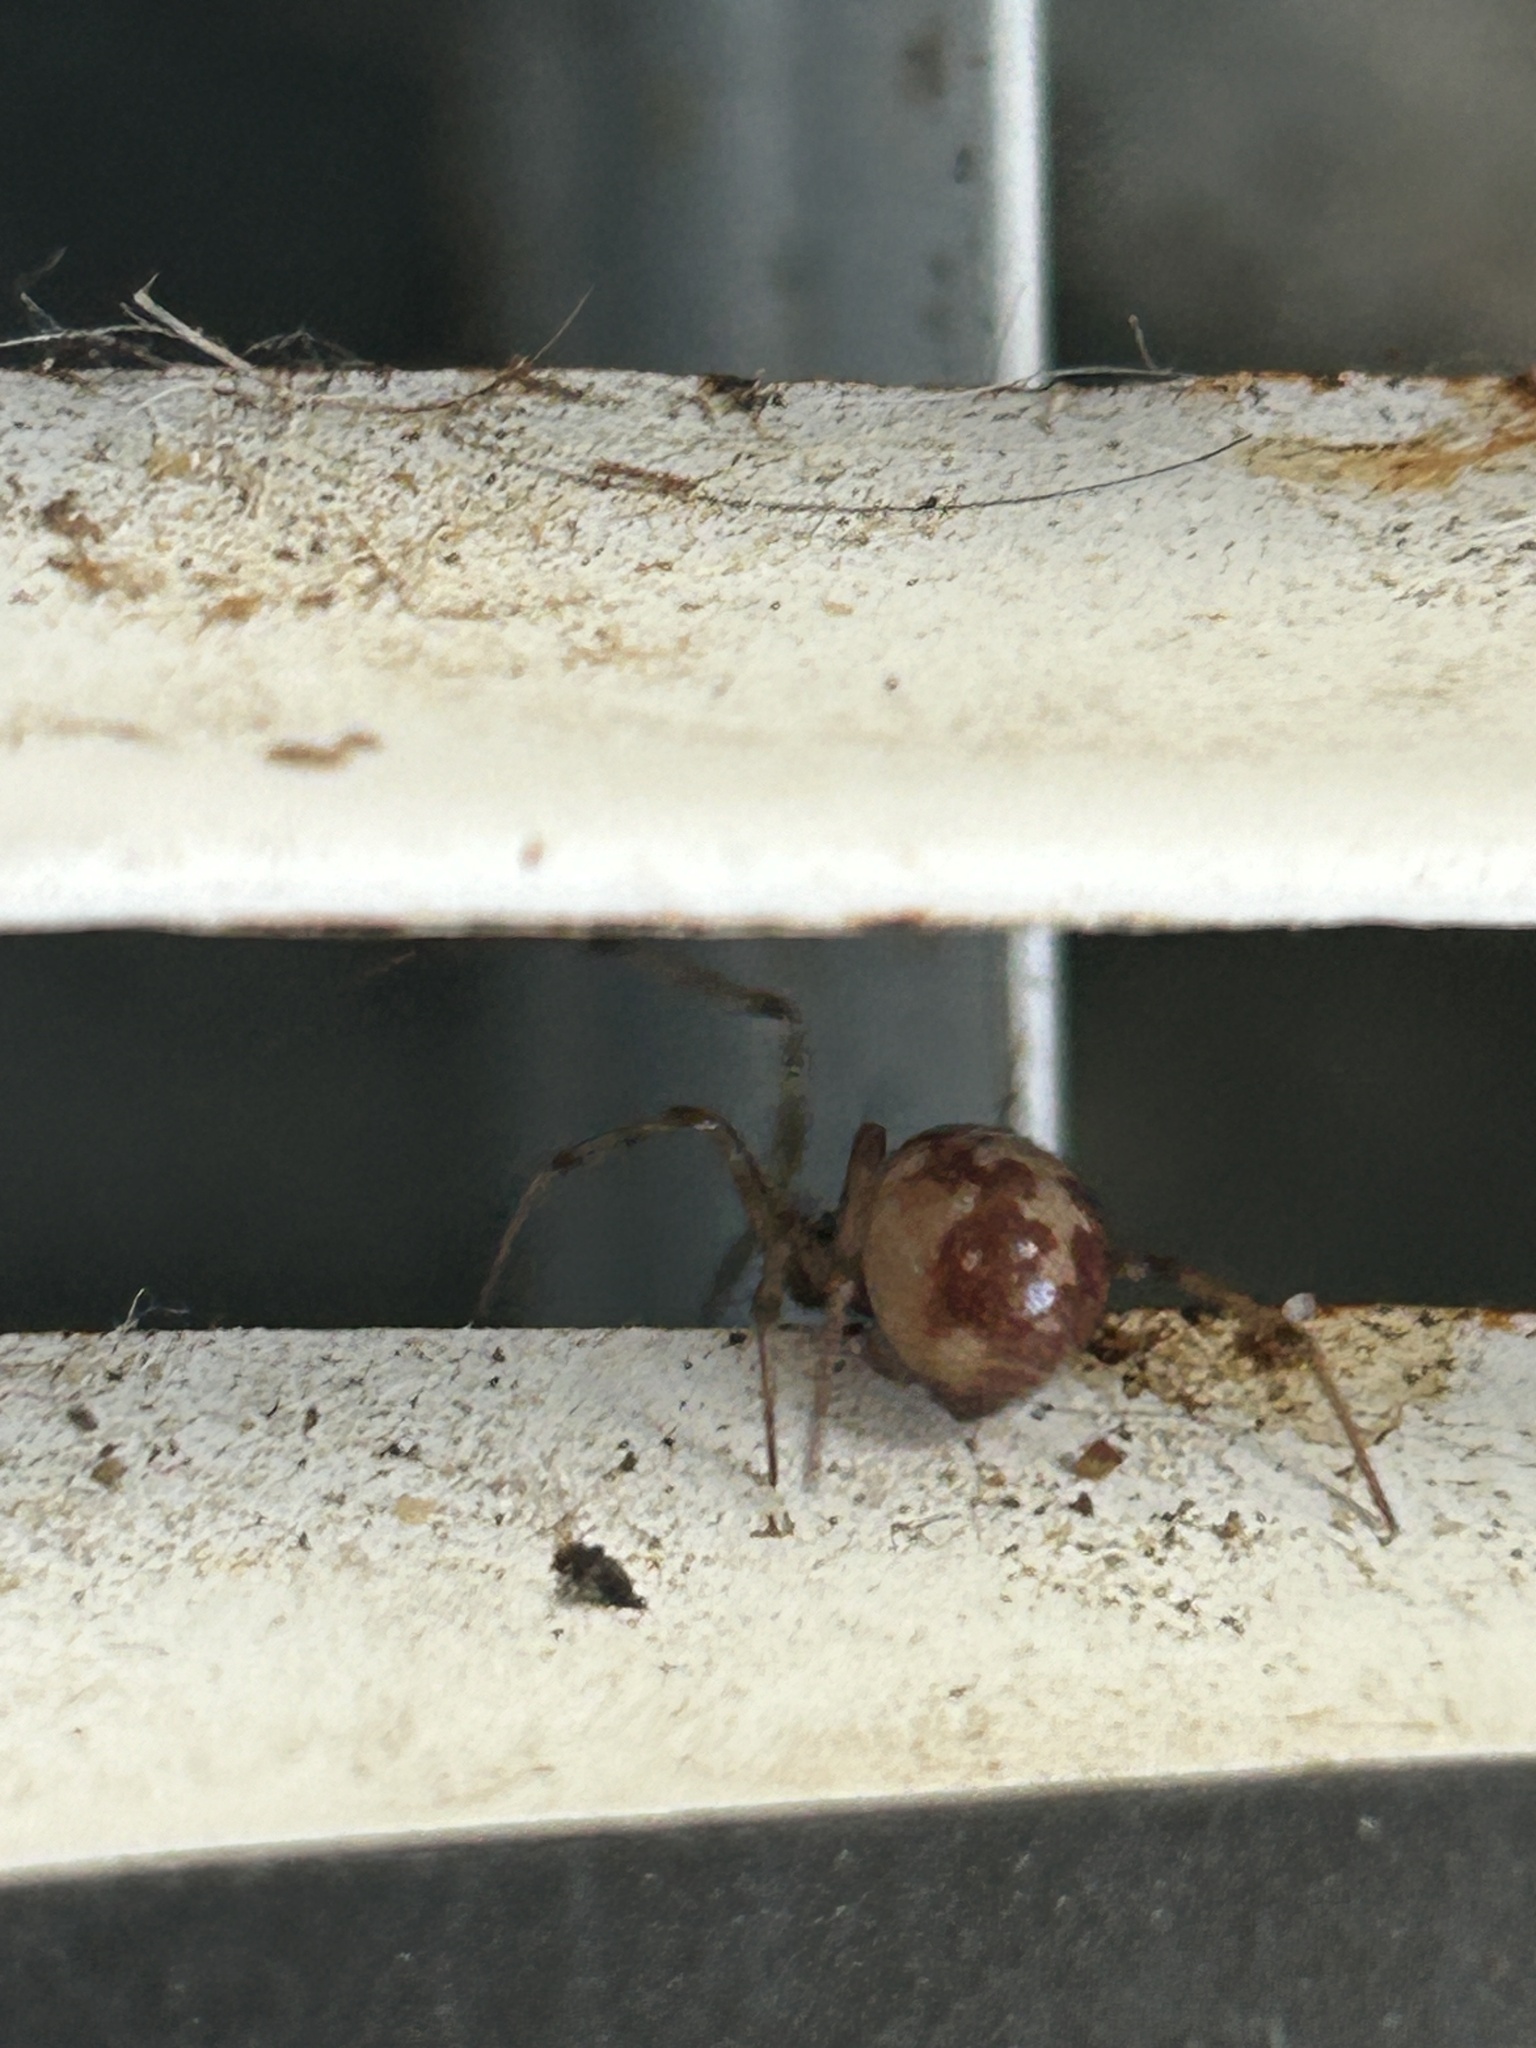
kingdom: Animalia
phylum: Arthropoda
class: Arachnida
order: Araneae
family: Theridiidae
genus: Steatoda
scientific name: Steatoda triangulosa
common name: Triangulate bud spider
